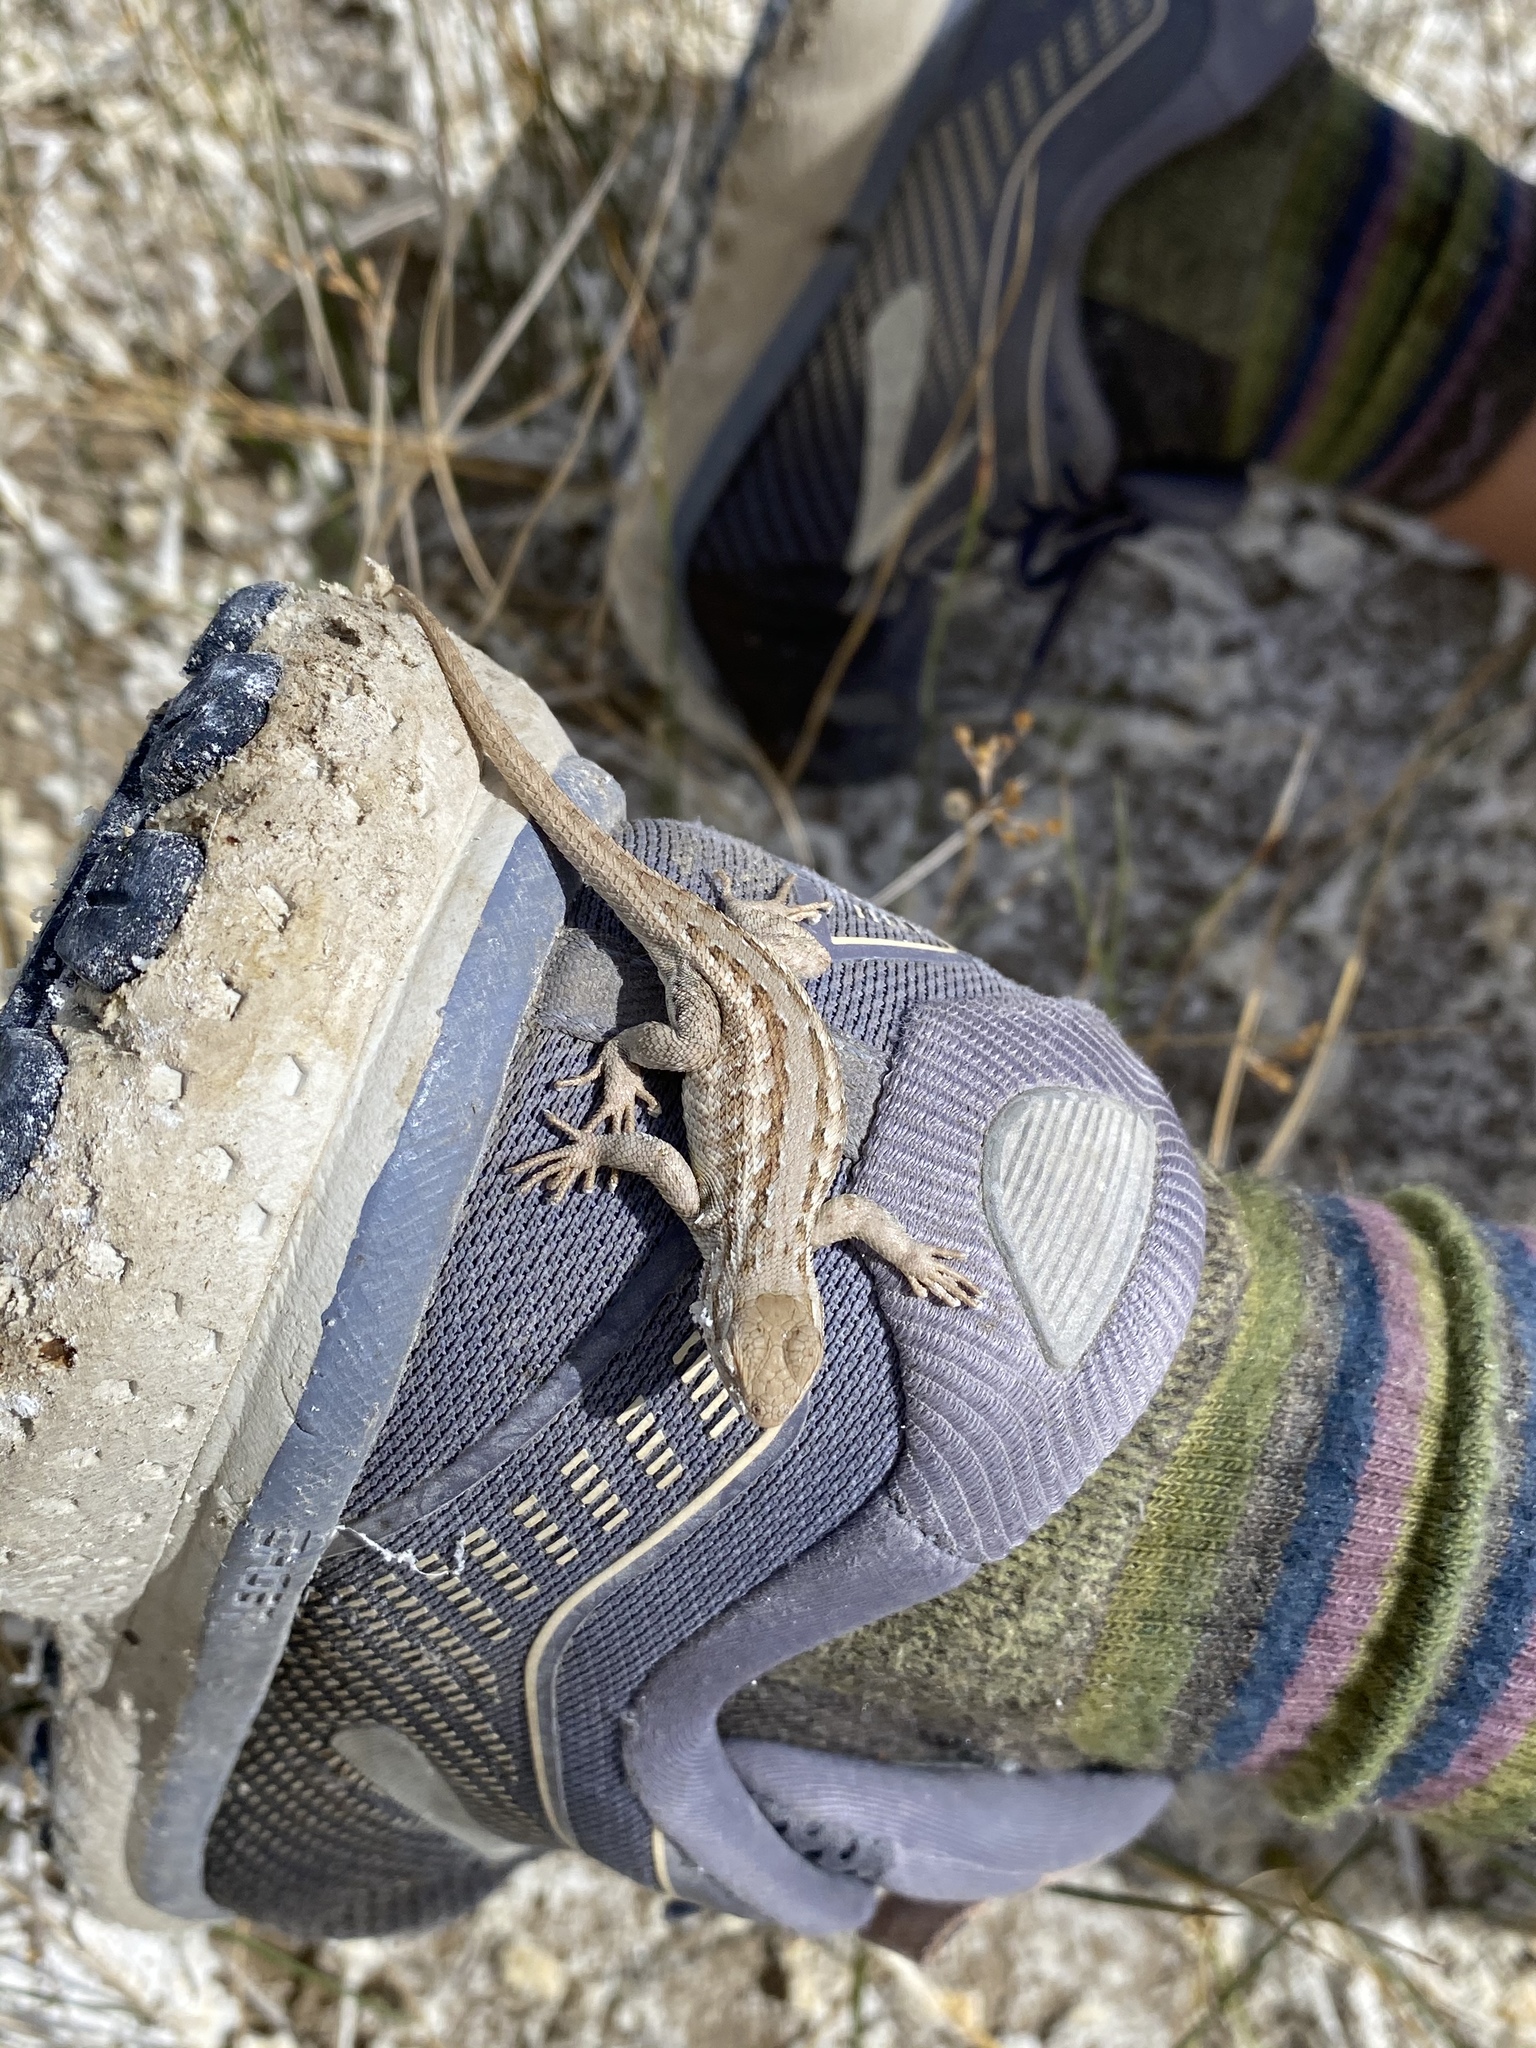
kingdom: Animalia
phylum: Chordata
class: Squamata
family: Phrynosomatidae
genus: Sceloporus
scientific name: Sceloporus graciosus
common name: Sagebrush lizard
